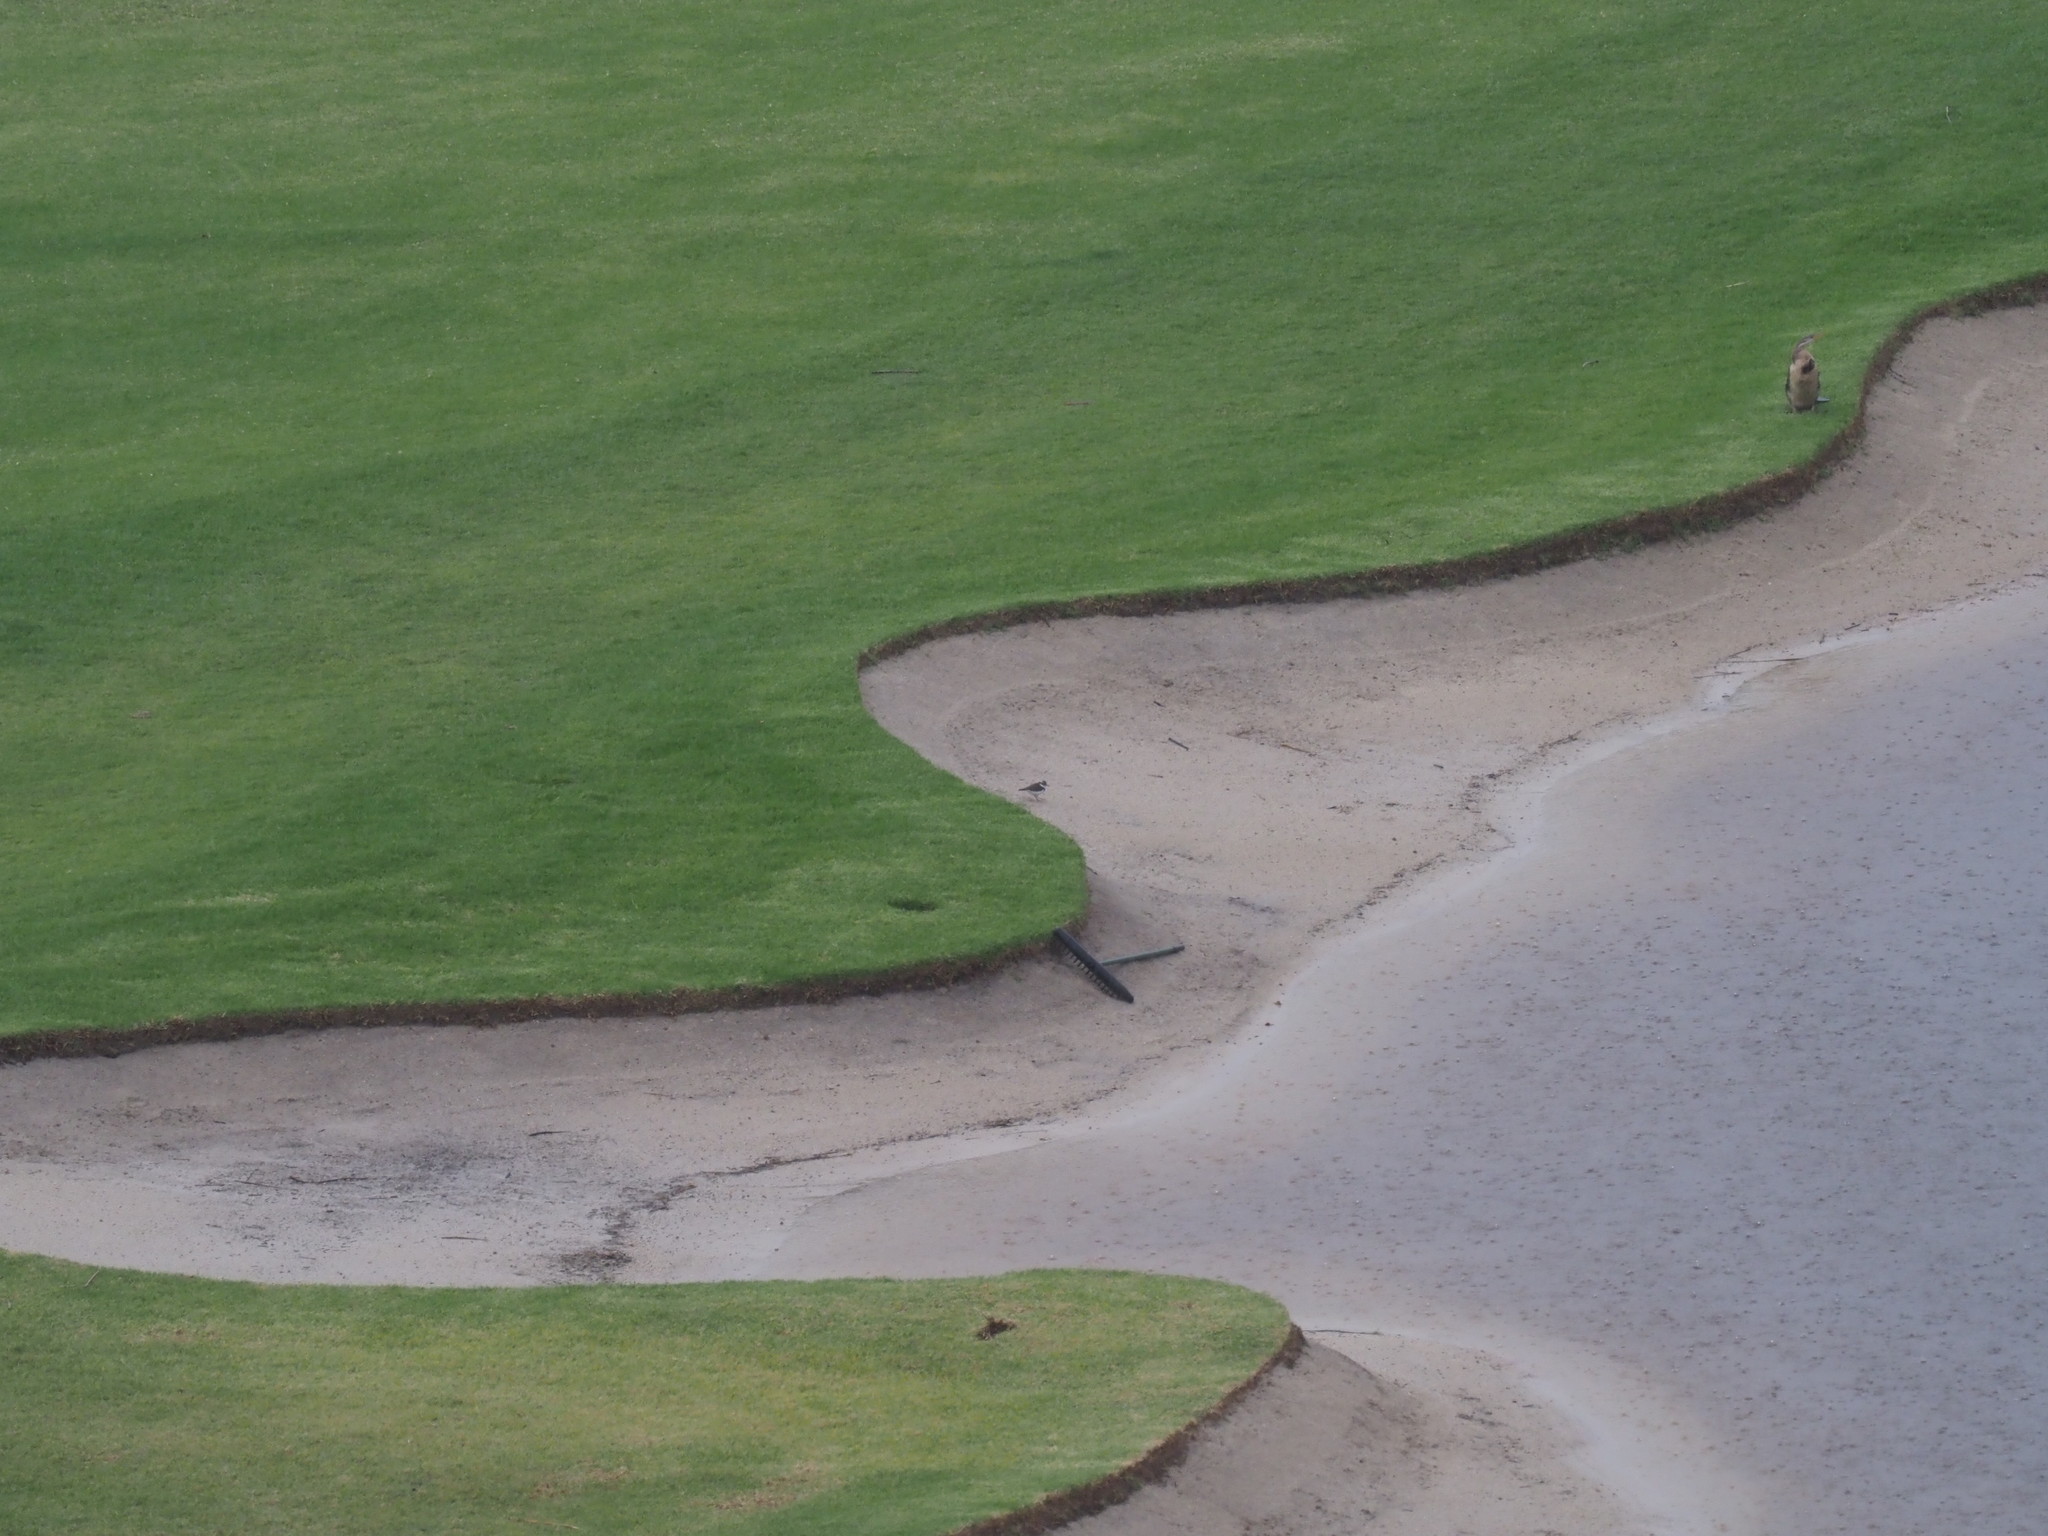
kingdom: Animalia
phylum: Chordata
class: Aves
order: Charadriiformes
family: Charadriidae
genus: Charadrius
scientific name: Charadrius hiaticula
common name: Common ringed plover
